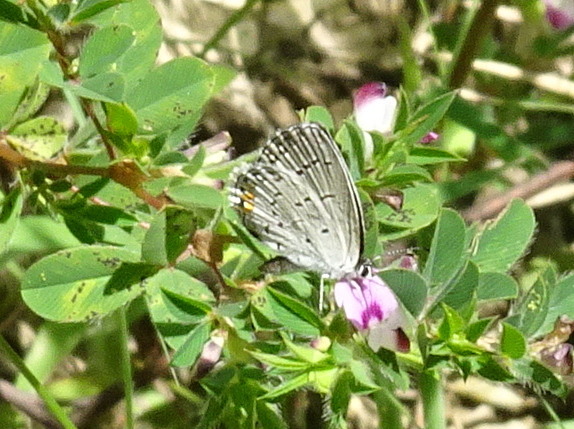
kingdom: Animalia
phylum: Arthropoda
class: Insecta
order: Lepidoptera
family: Lycaenidae
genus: Elkalyce
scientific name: Elkalyce comyntas
